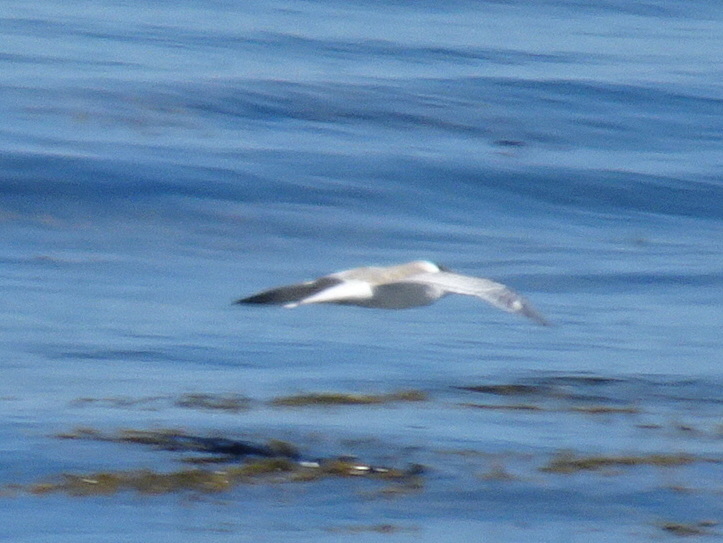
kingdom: Animalia
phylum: Chordata
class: Aves
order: Charadriiformes
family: Laridae
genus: Sterna
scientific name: Sterna hirundo
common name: Common tern
